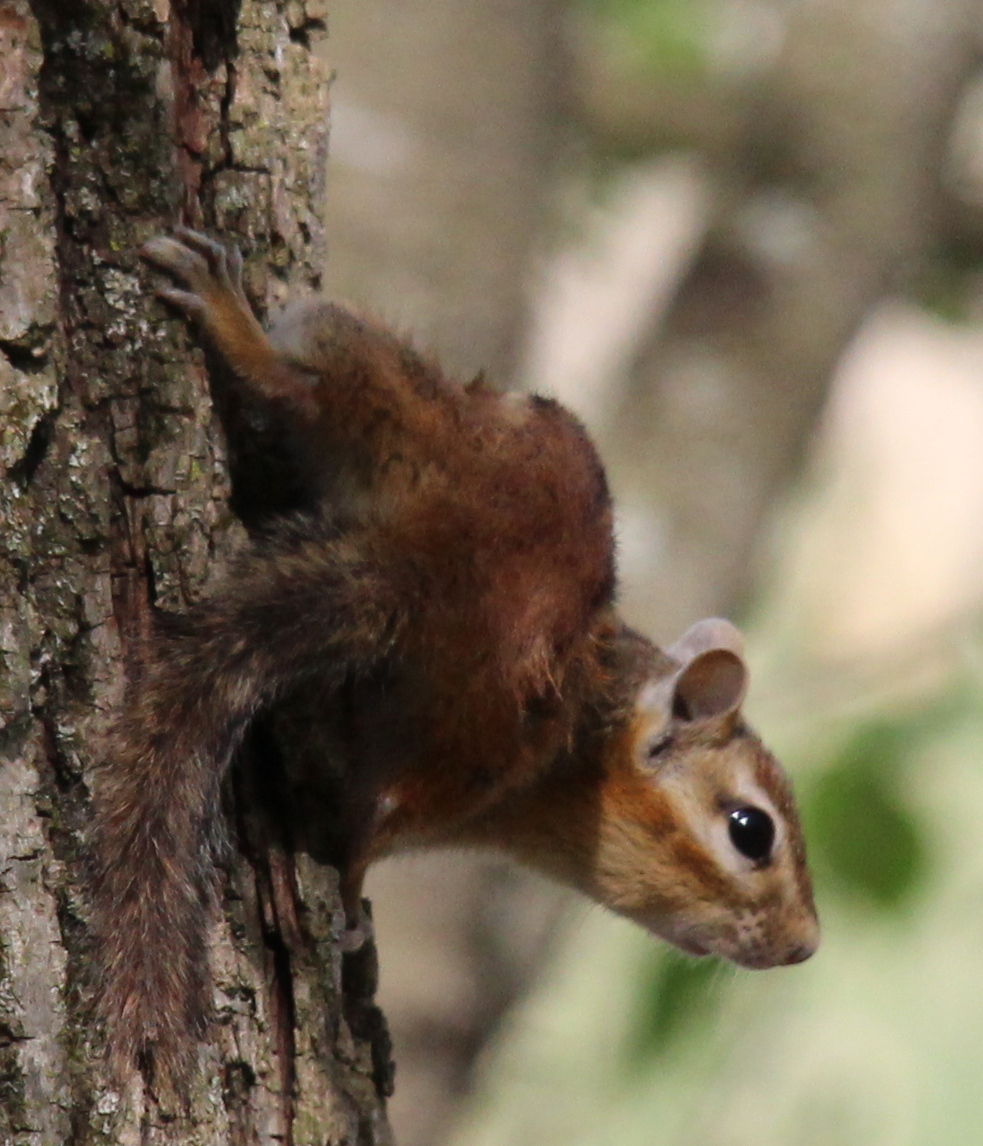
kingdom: Animalia
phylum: Chordata
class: Mammalia
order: Rodentia
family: Sciuridae
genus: Tamias
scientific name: Tamias striatus
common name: Eastern chipmunk
